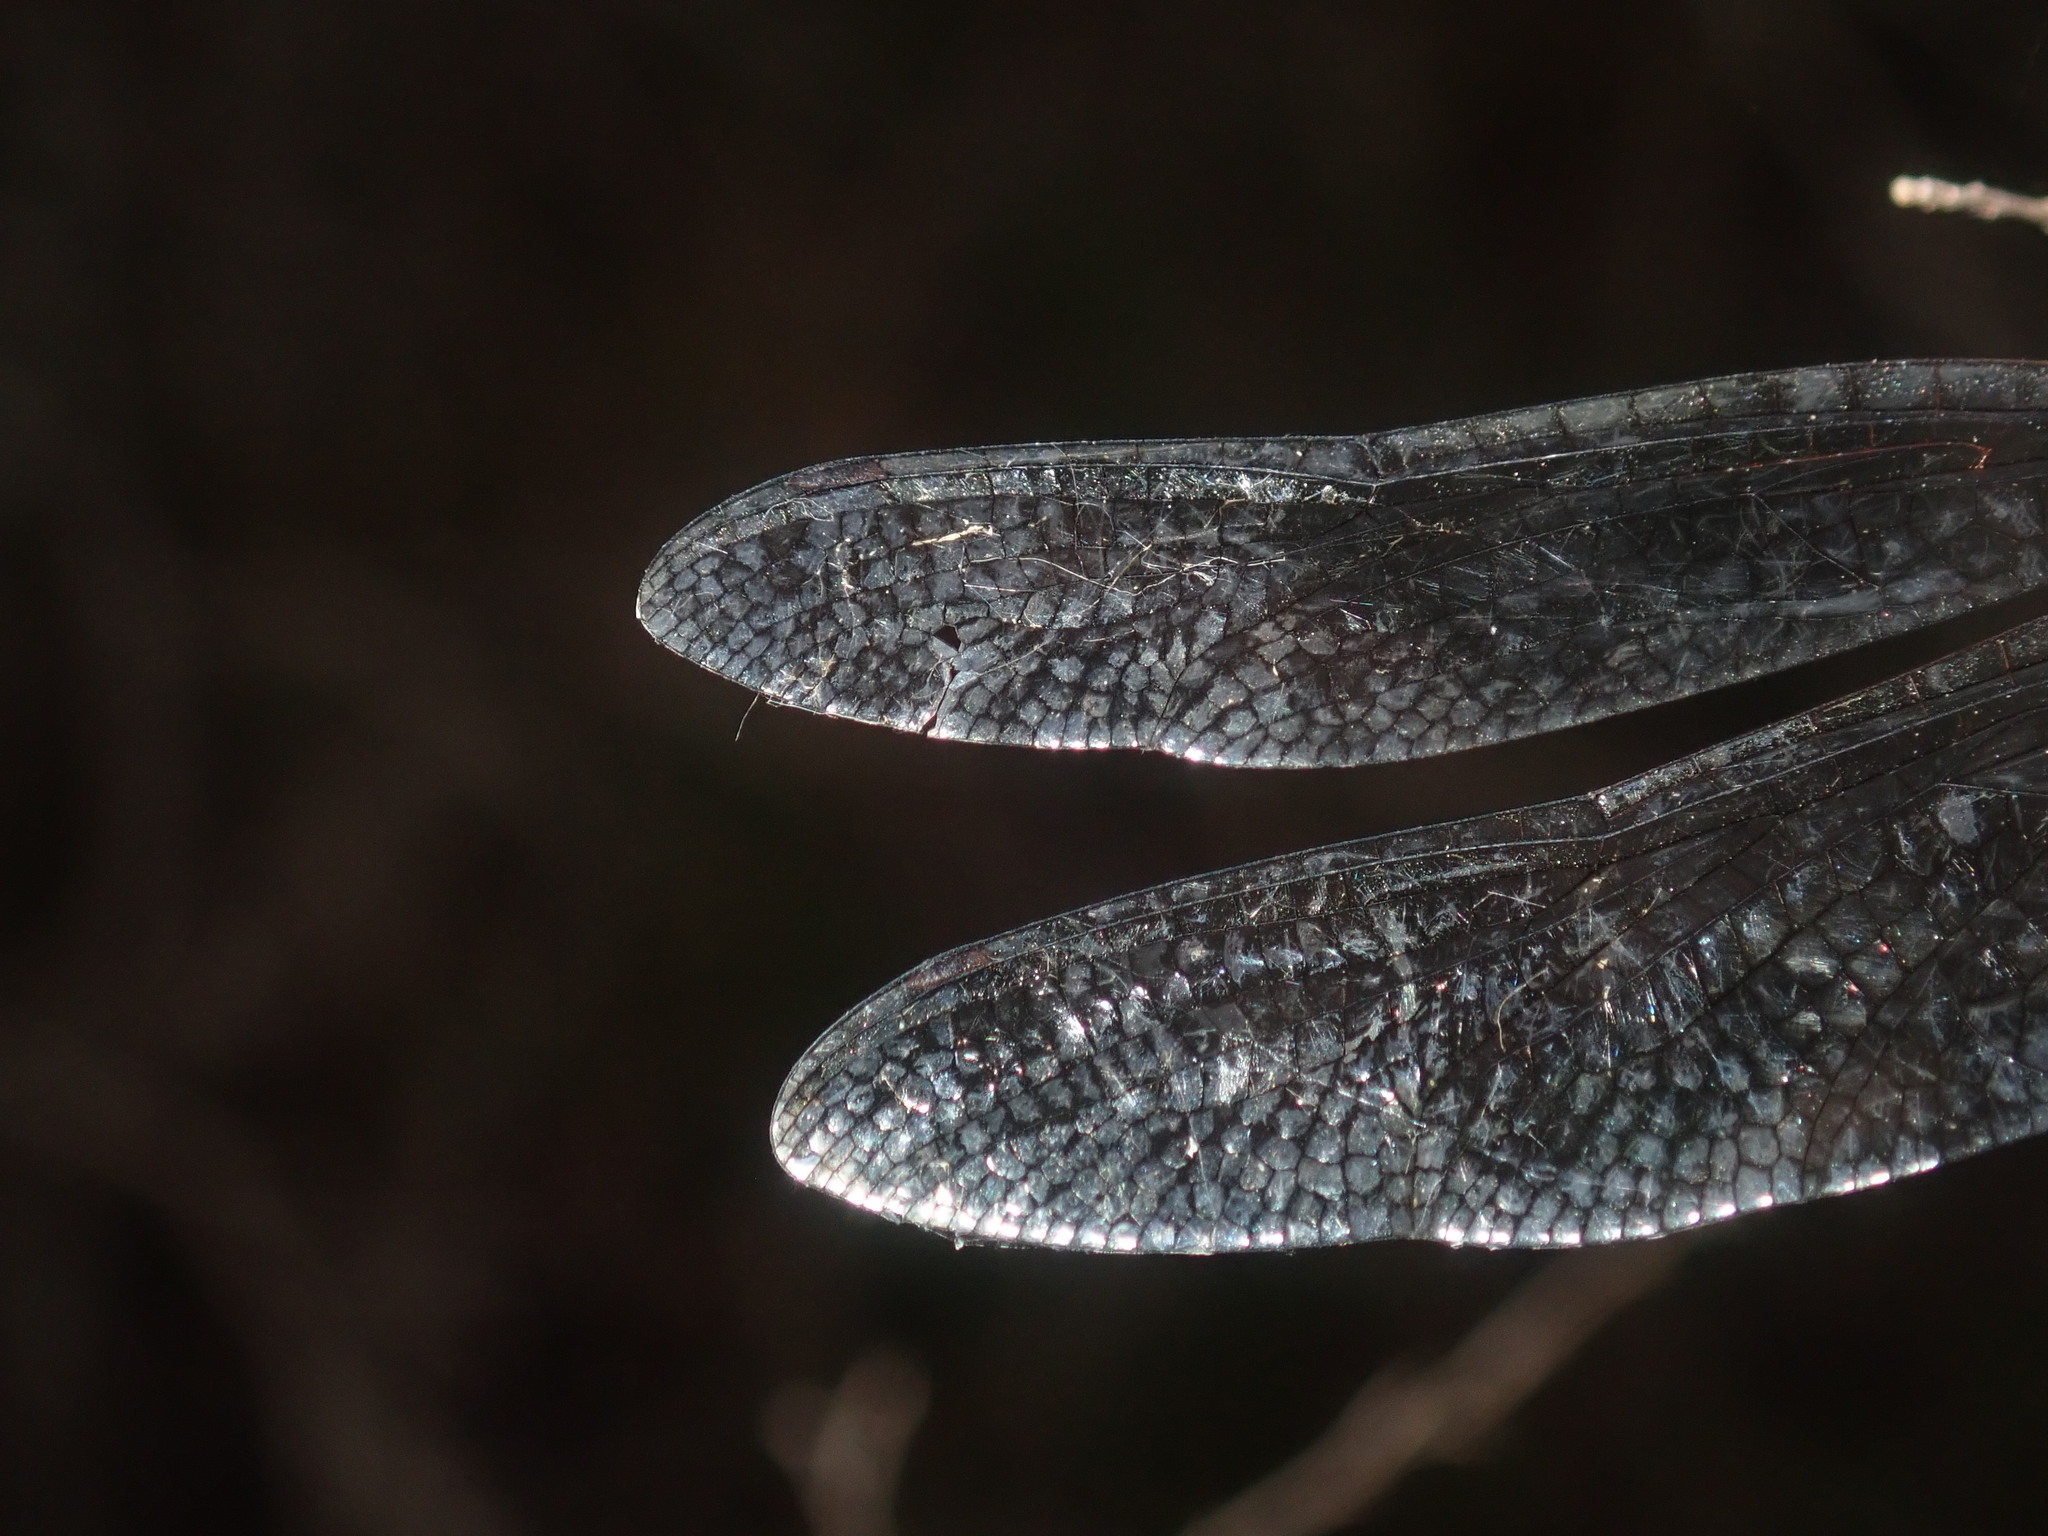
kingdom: Animalia
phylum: Arthropoda
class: Insecta
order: Odonata
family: Corduliidae
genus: Hemicordulia
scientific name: Hemicordulia australiae
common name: Sentry dragonfly
